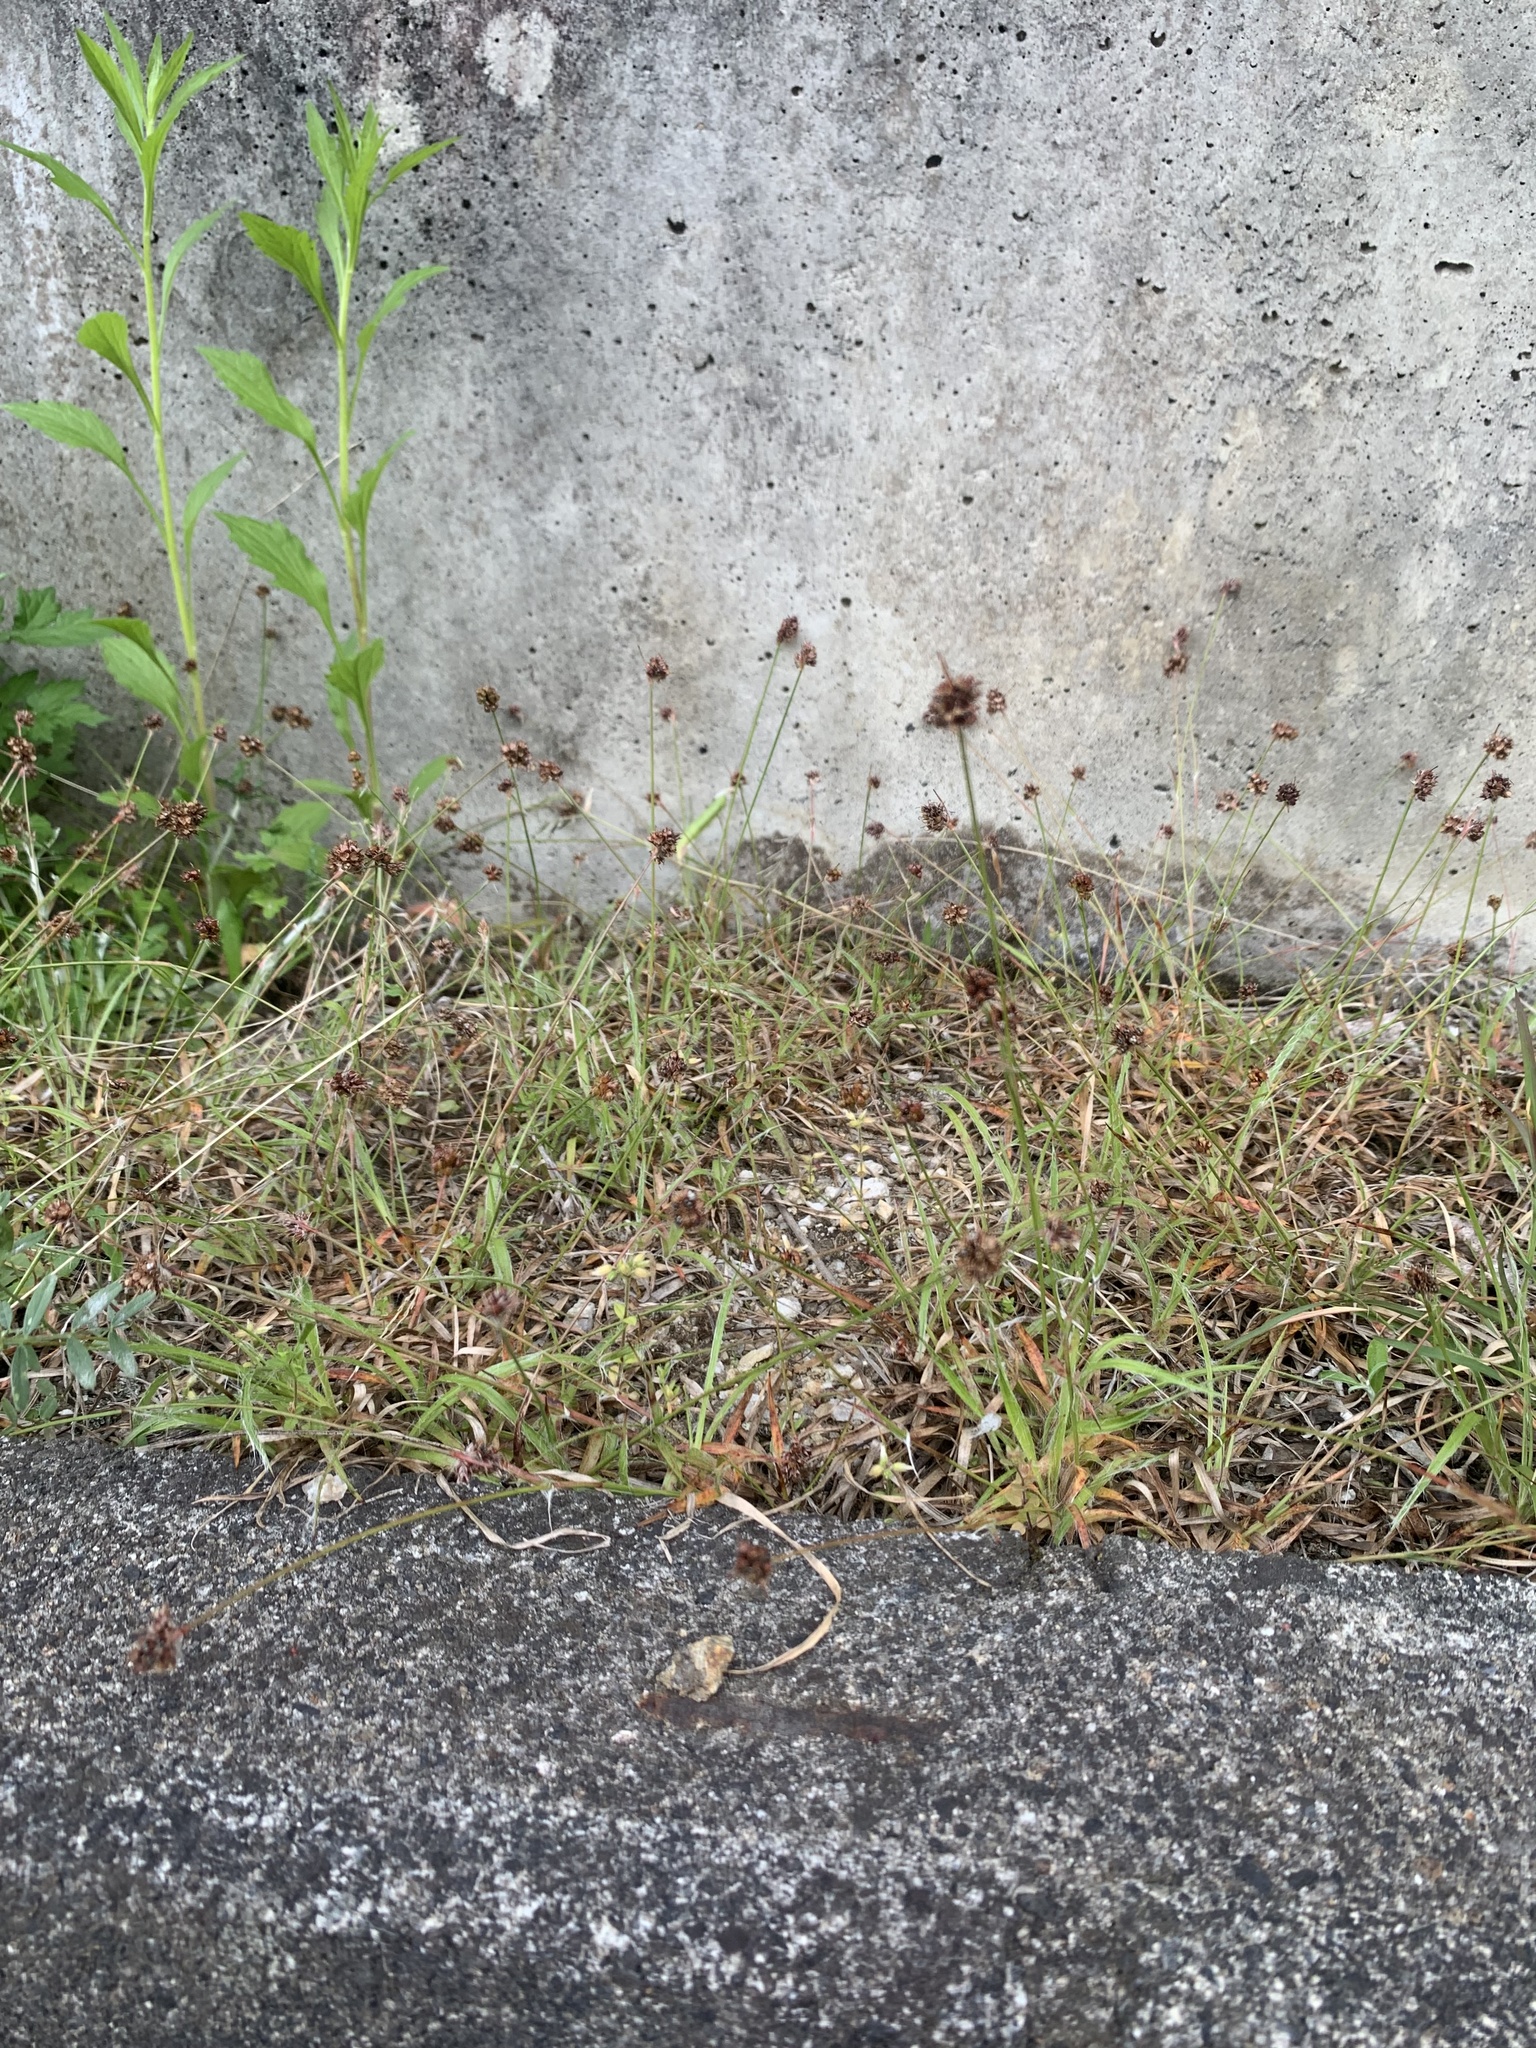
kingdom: Plantae
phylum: Tracheophyta
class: Liliopsida
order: Poales
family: Juncaceae
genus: Luzula
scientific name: Luzula capitata
